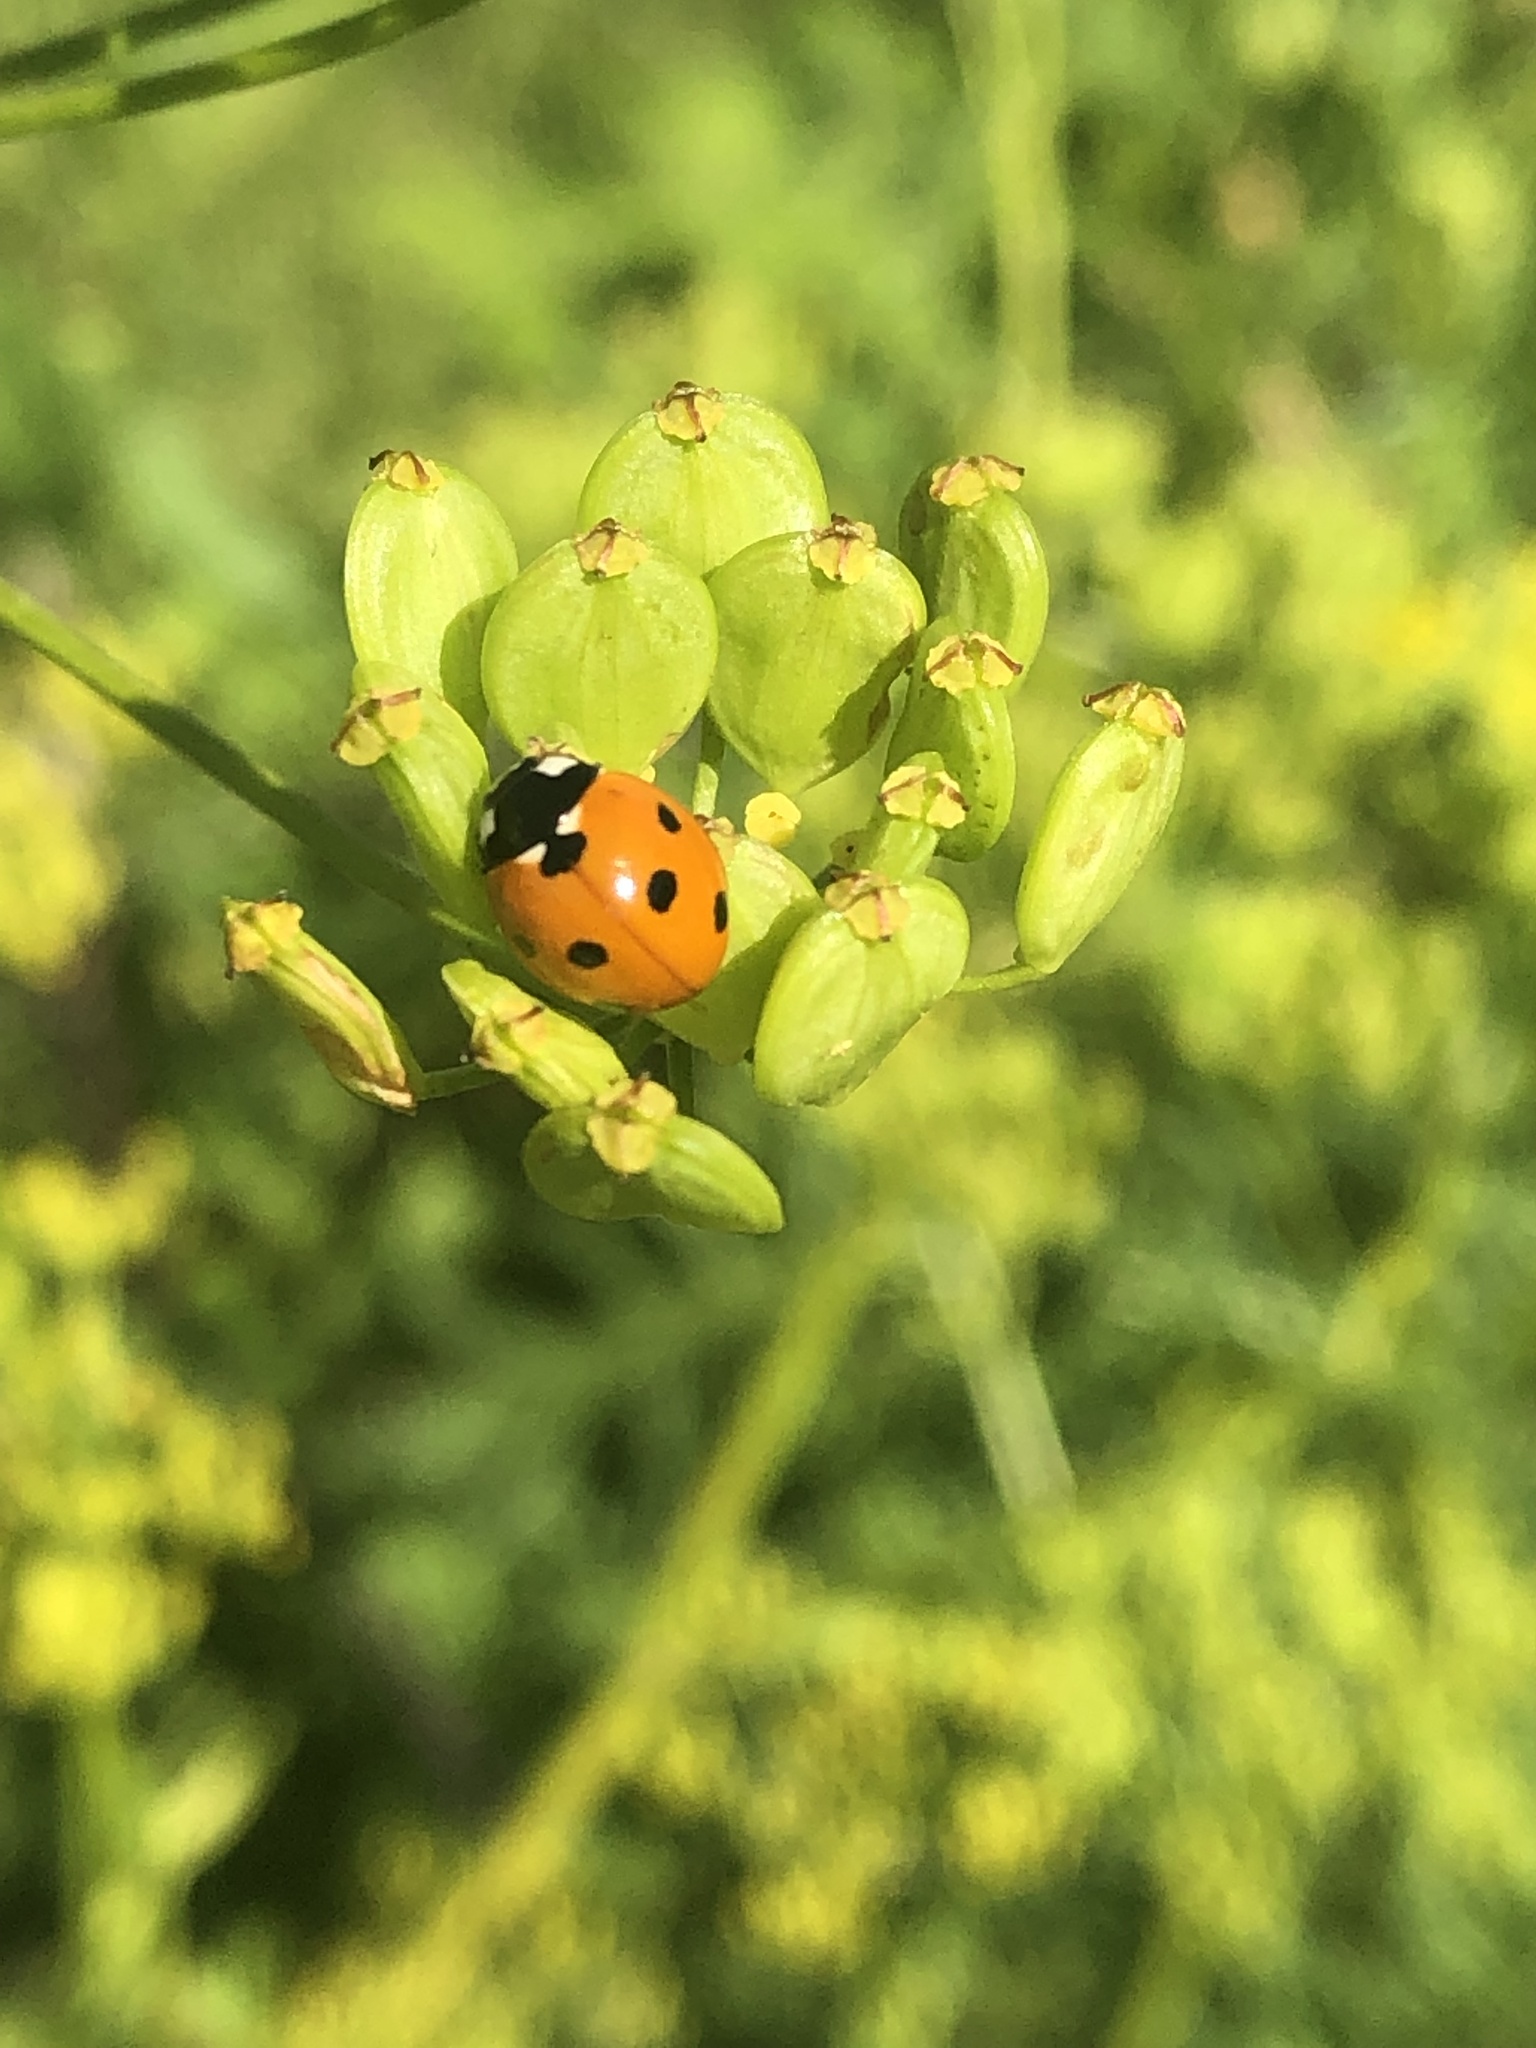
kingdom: Animalia
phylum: Arthropoda
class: Insecta
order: Coleoptera
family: Coccinellidae
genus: Coccinella
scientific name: Coccinella septempunctata
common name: Sevenspotted lady beetle
